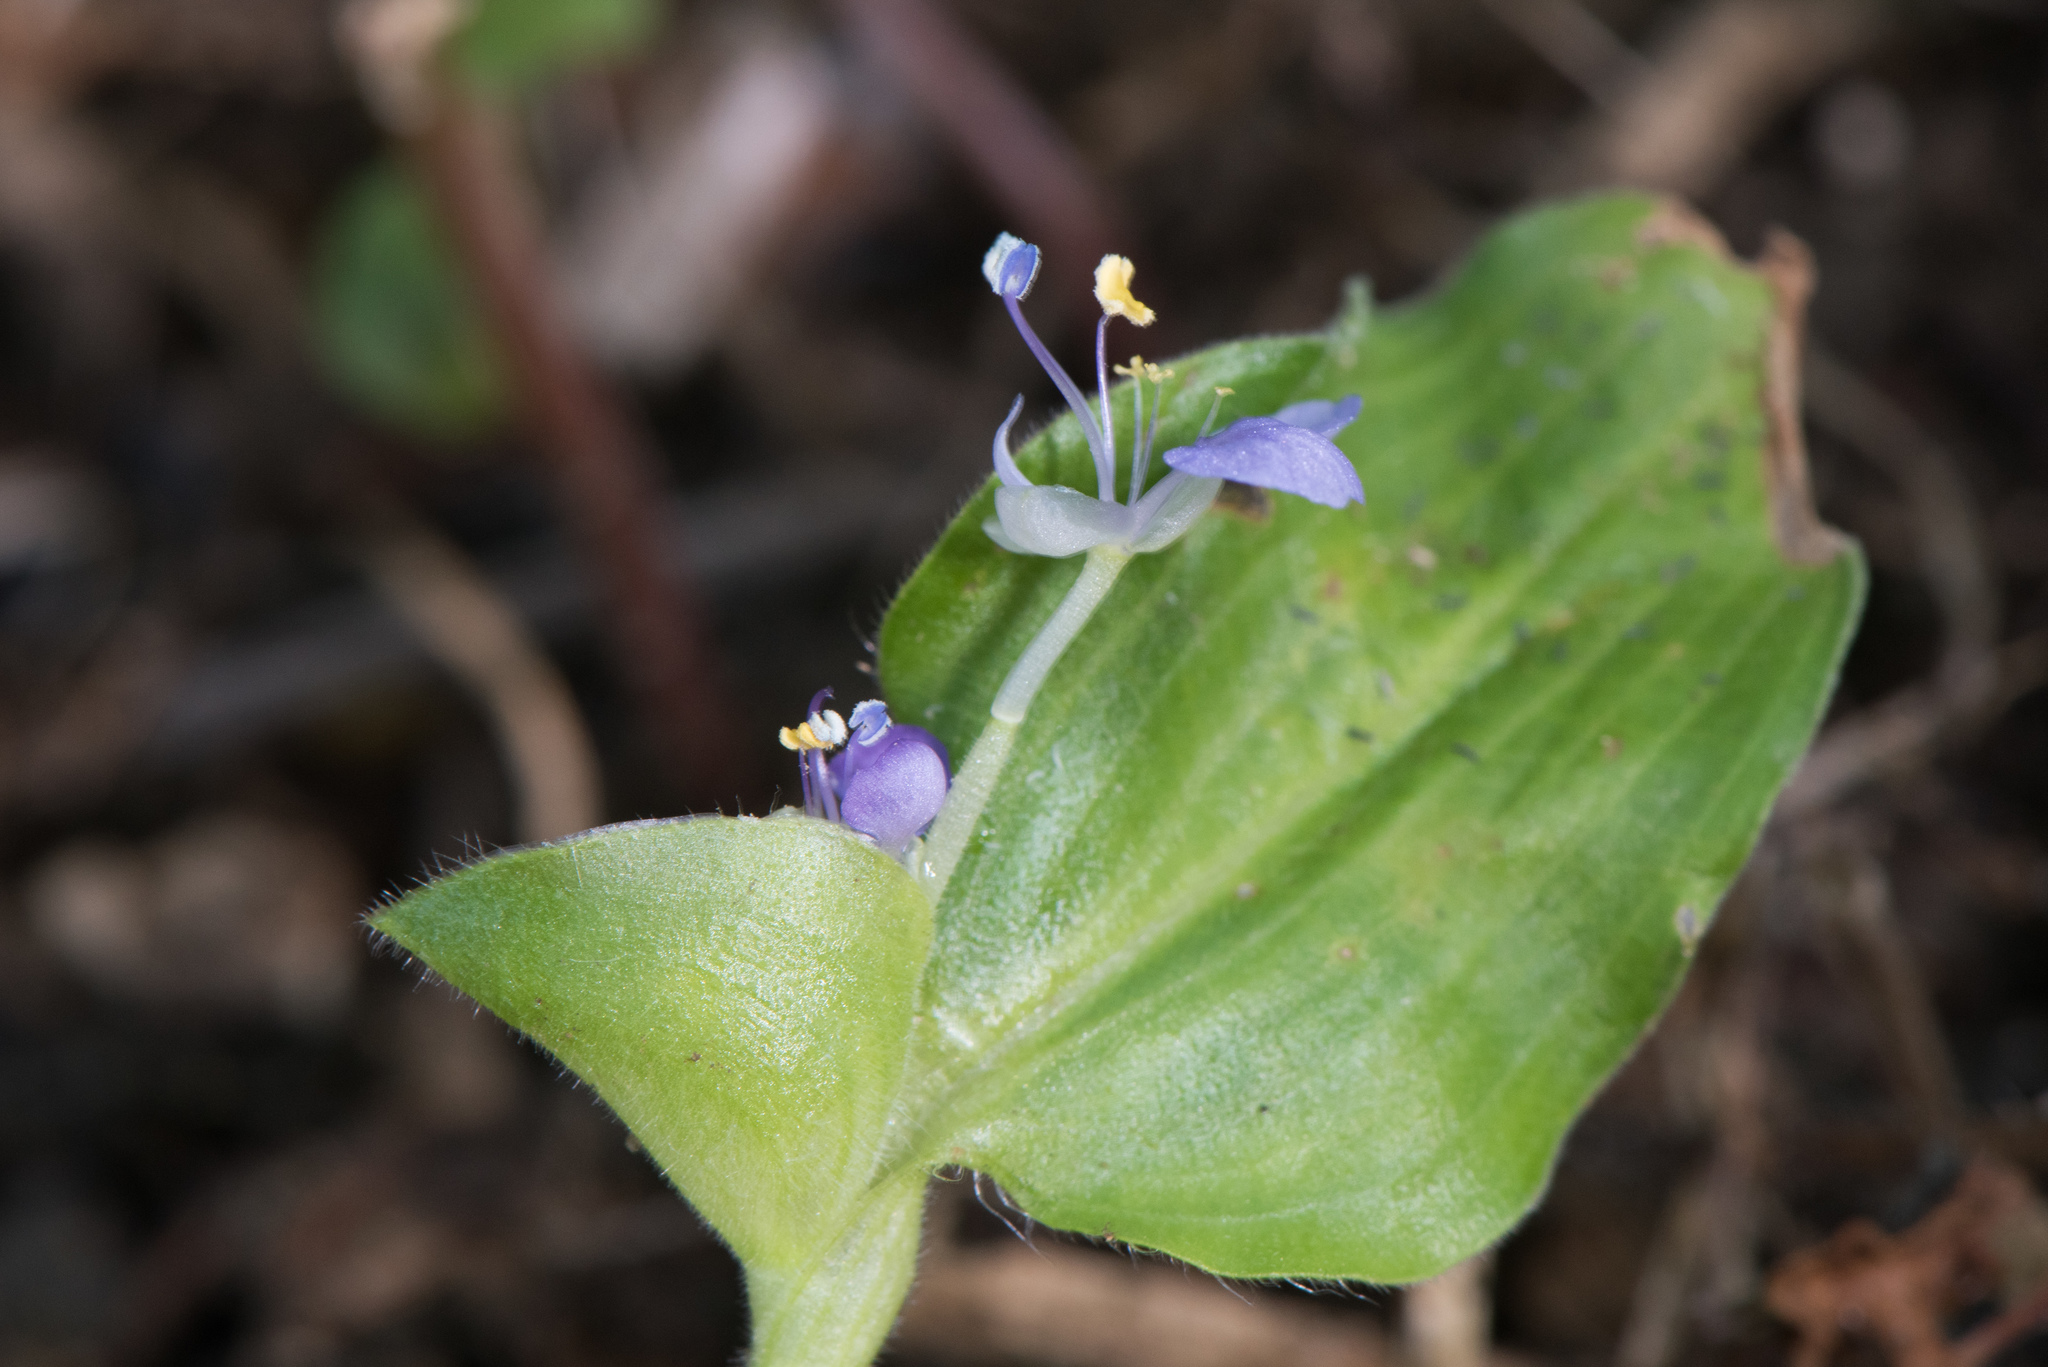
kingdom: Plantae
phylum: Tracheophyta
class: Liliopsida
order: Commelinales
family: Commelinaceae
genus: Commelina
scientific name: Commelina benghalensis
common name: Jio
